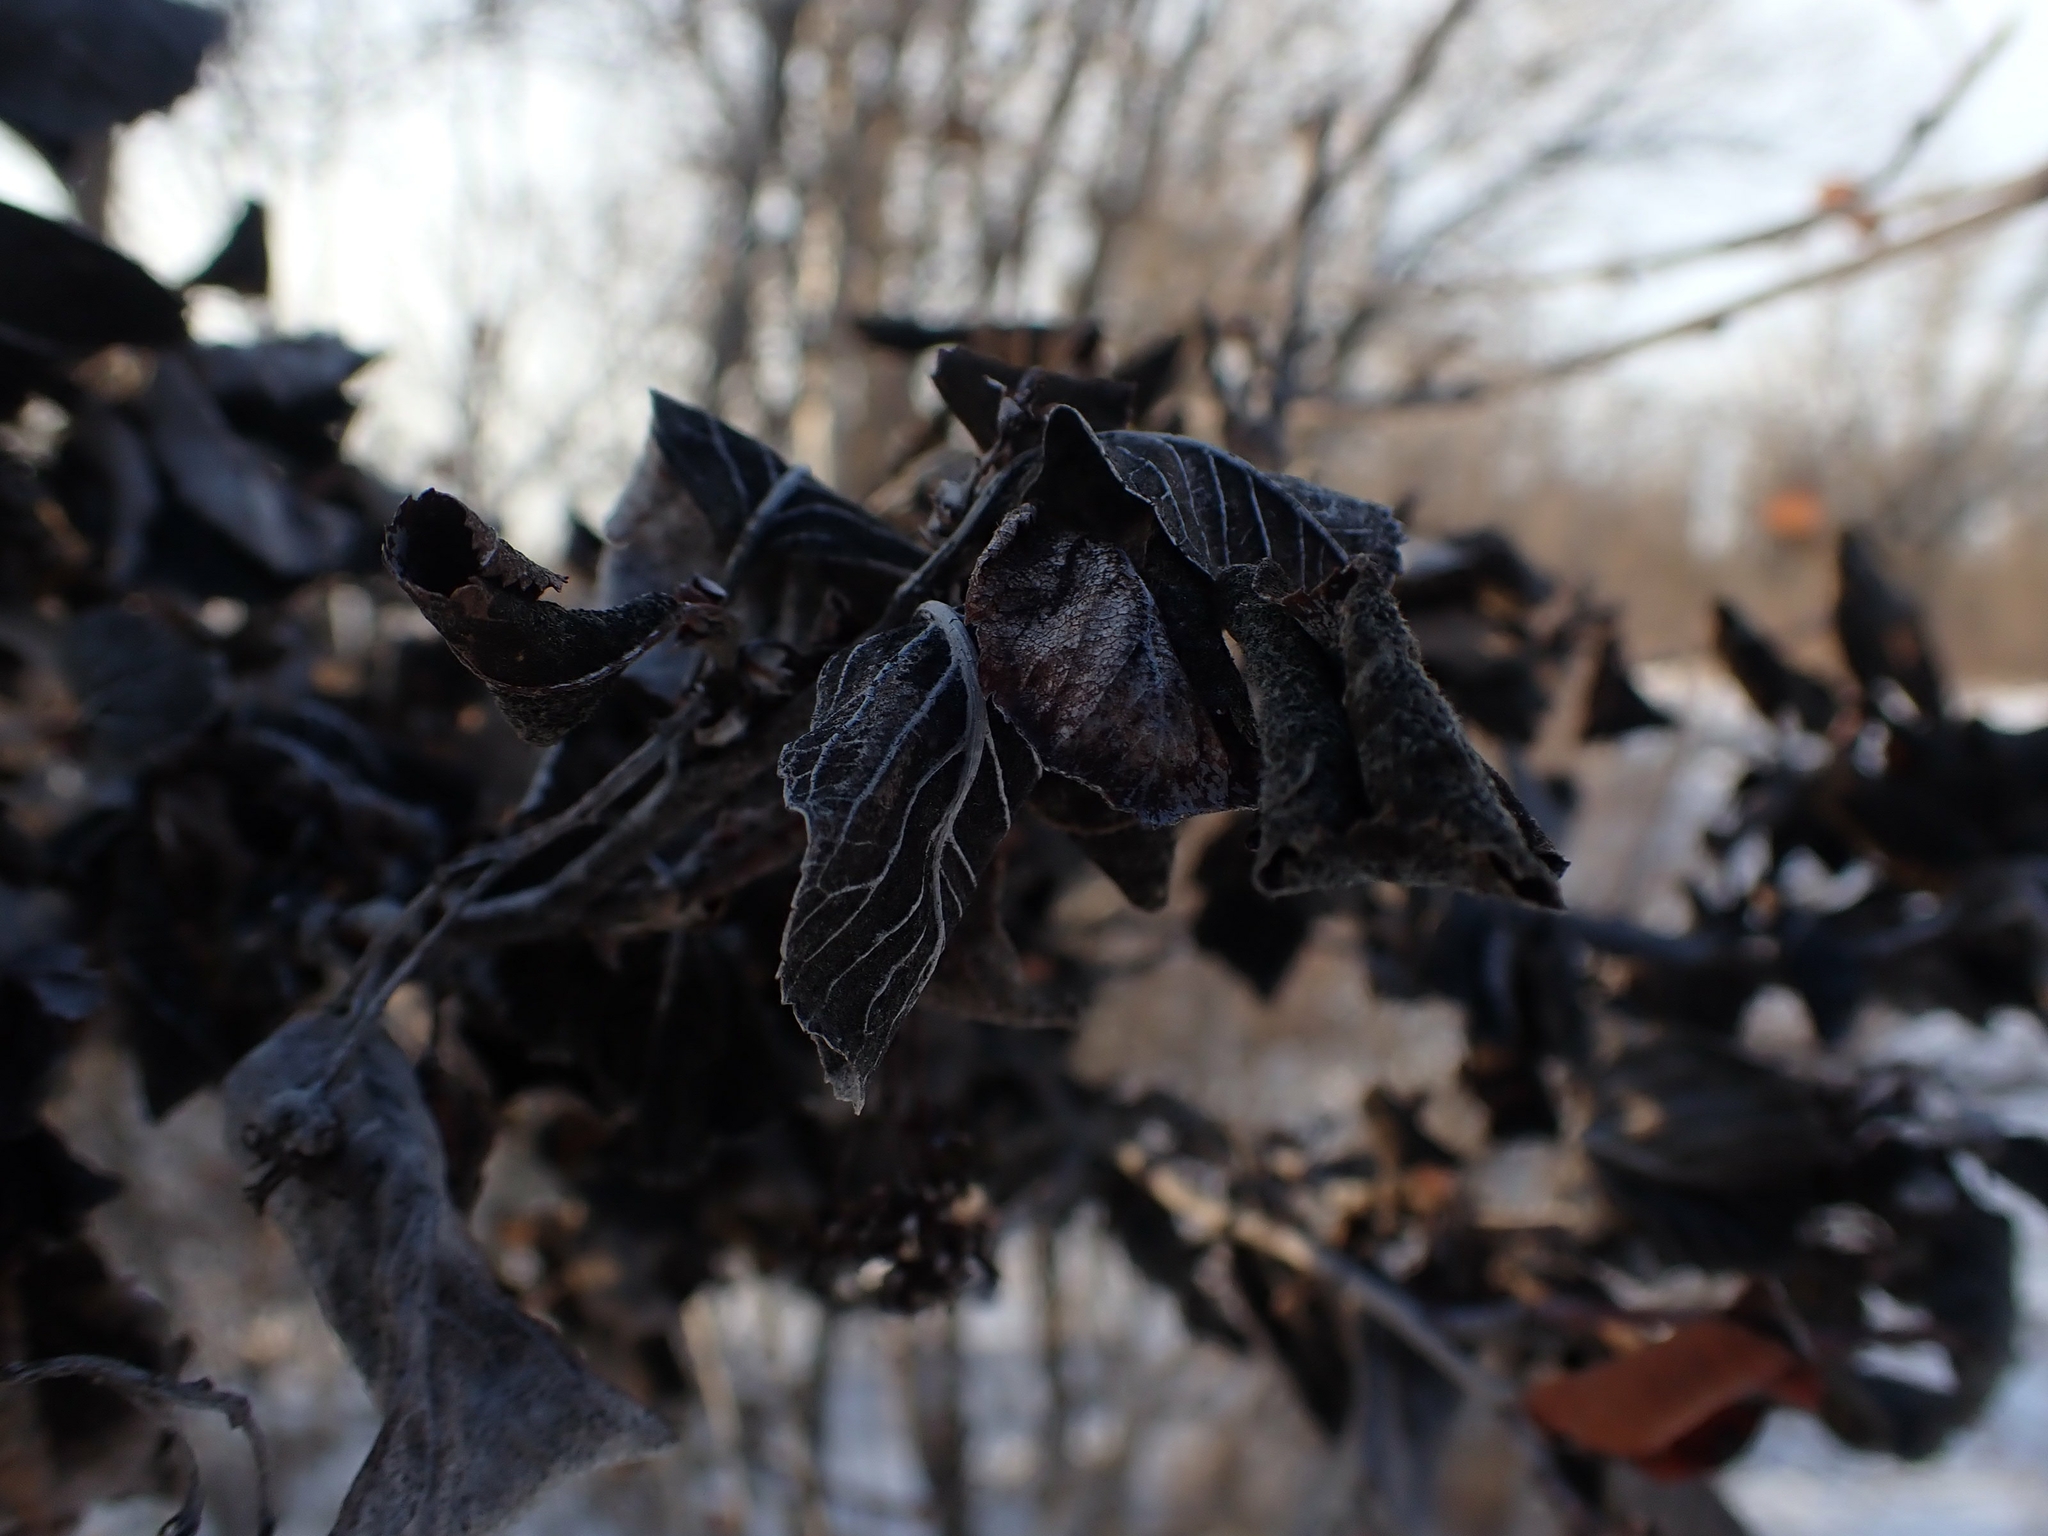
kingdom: Fungi
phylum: Ascomycota
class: Dothideomycetes
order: Venturiales
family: Venturiaceae
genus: Apiosporina
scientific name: Apiosporina collinsii
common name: Black leaf
